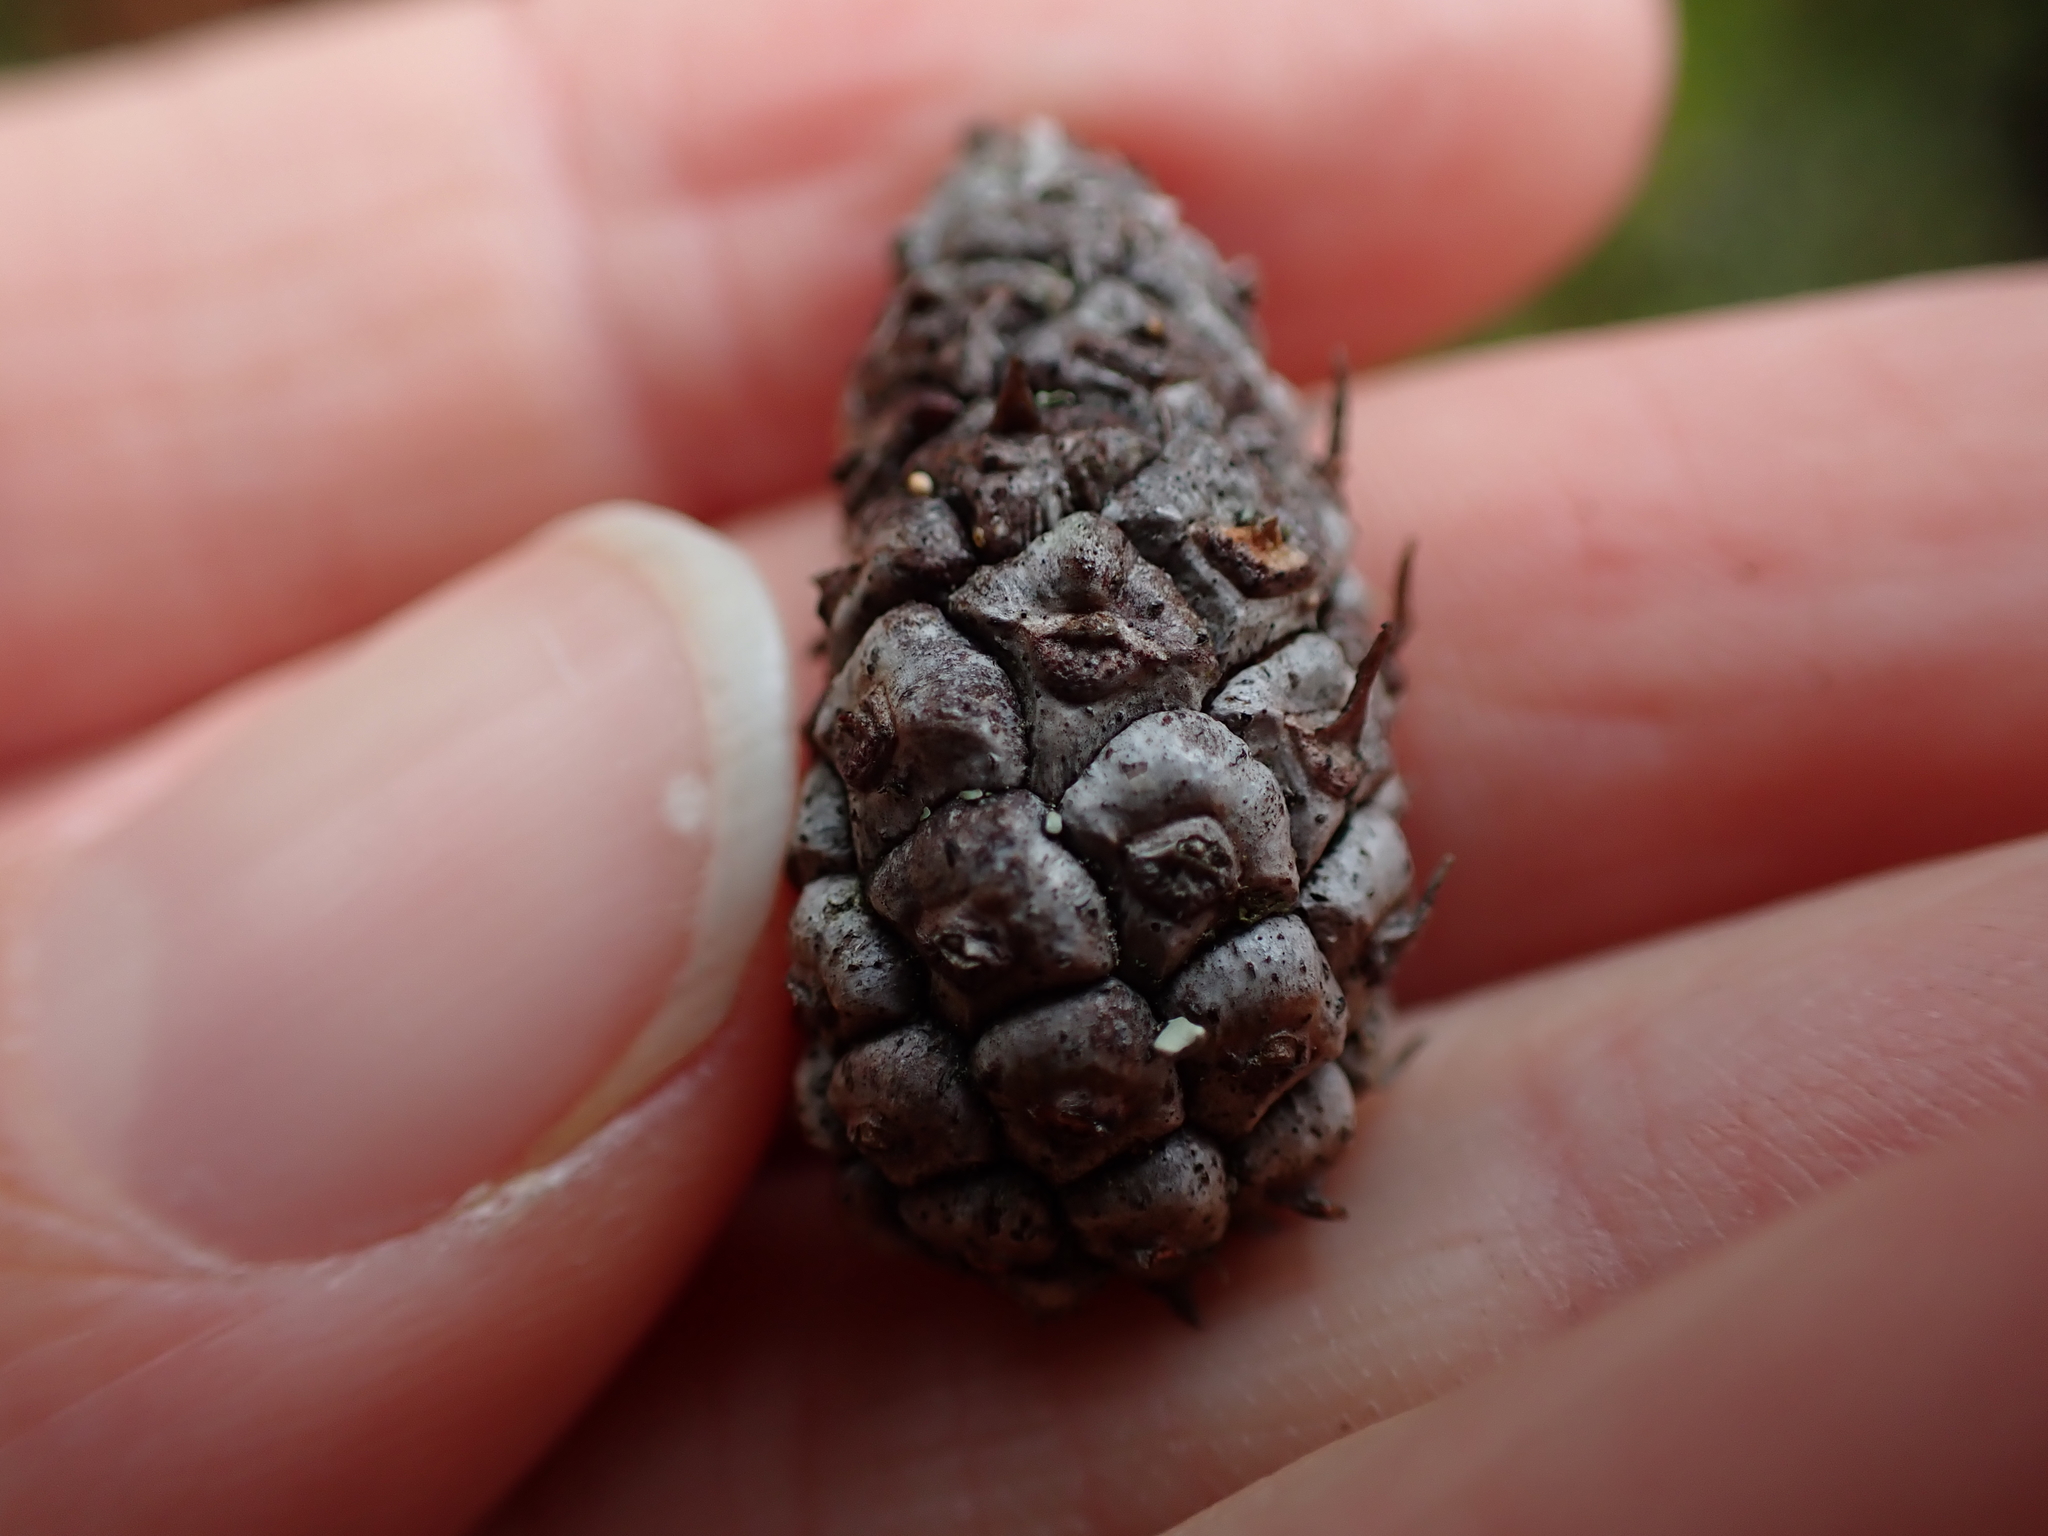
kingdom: Plantae
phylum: Tracheophyta
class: Pinopsida
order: Pinales
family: Pinaceae
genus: Pinus
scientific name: Pinus contorta
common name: Lodgepole pine
